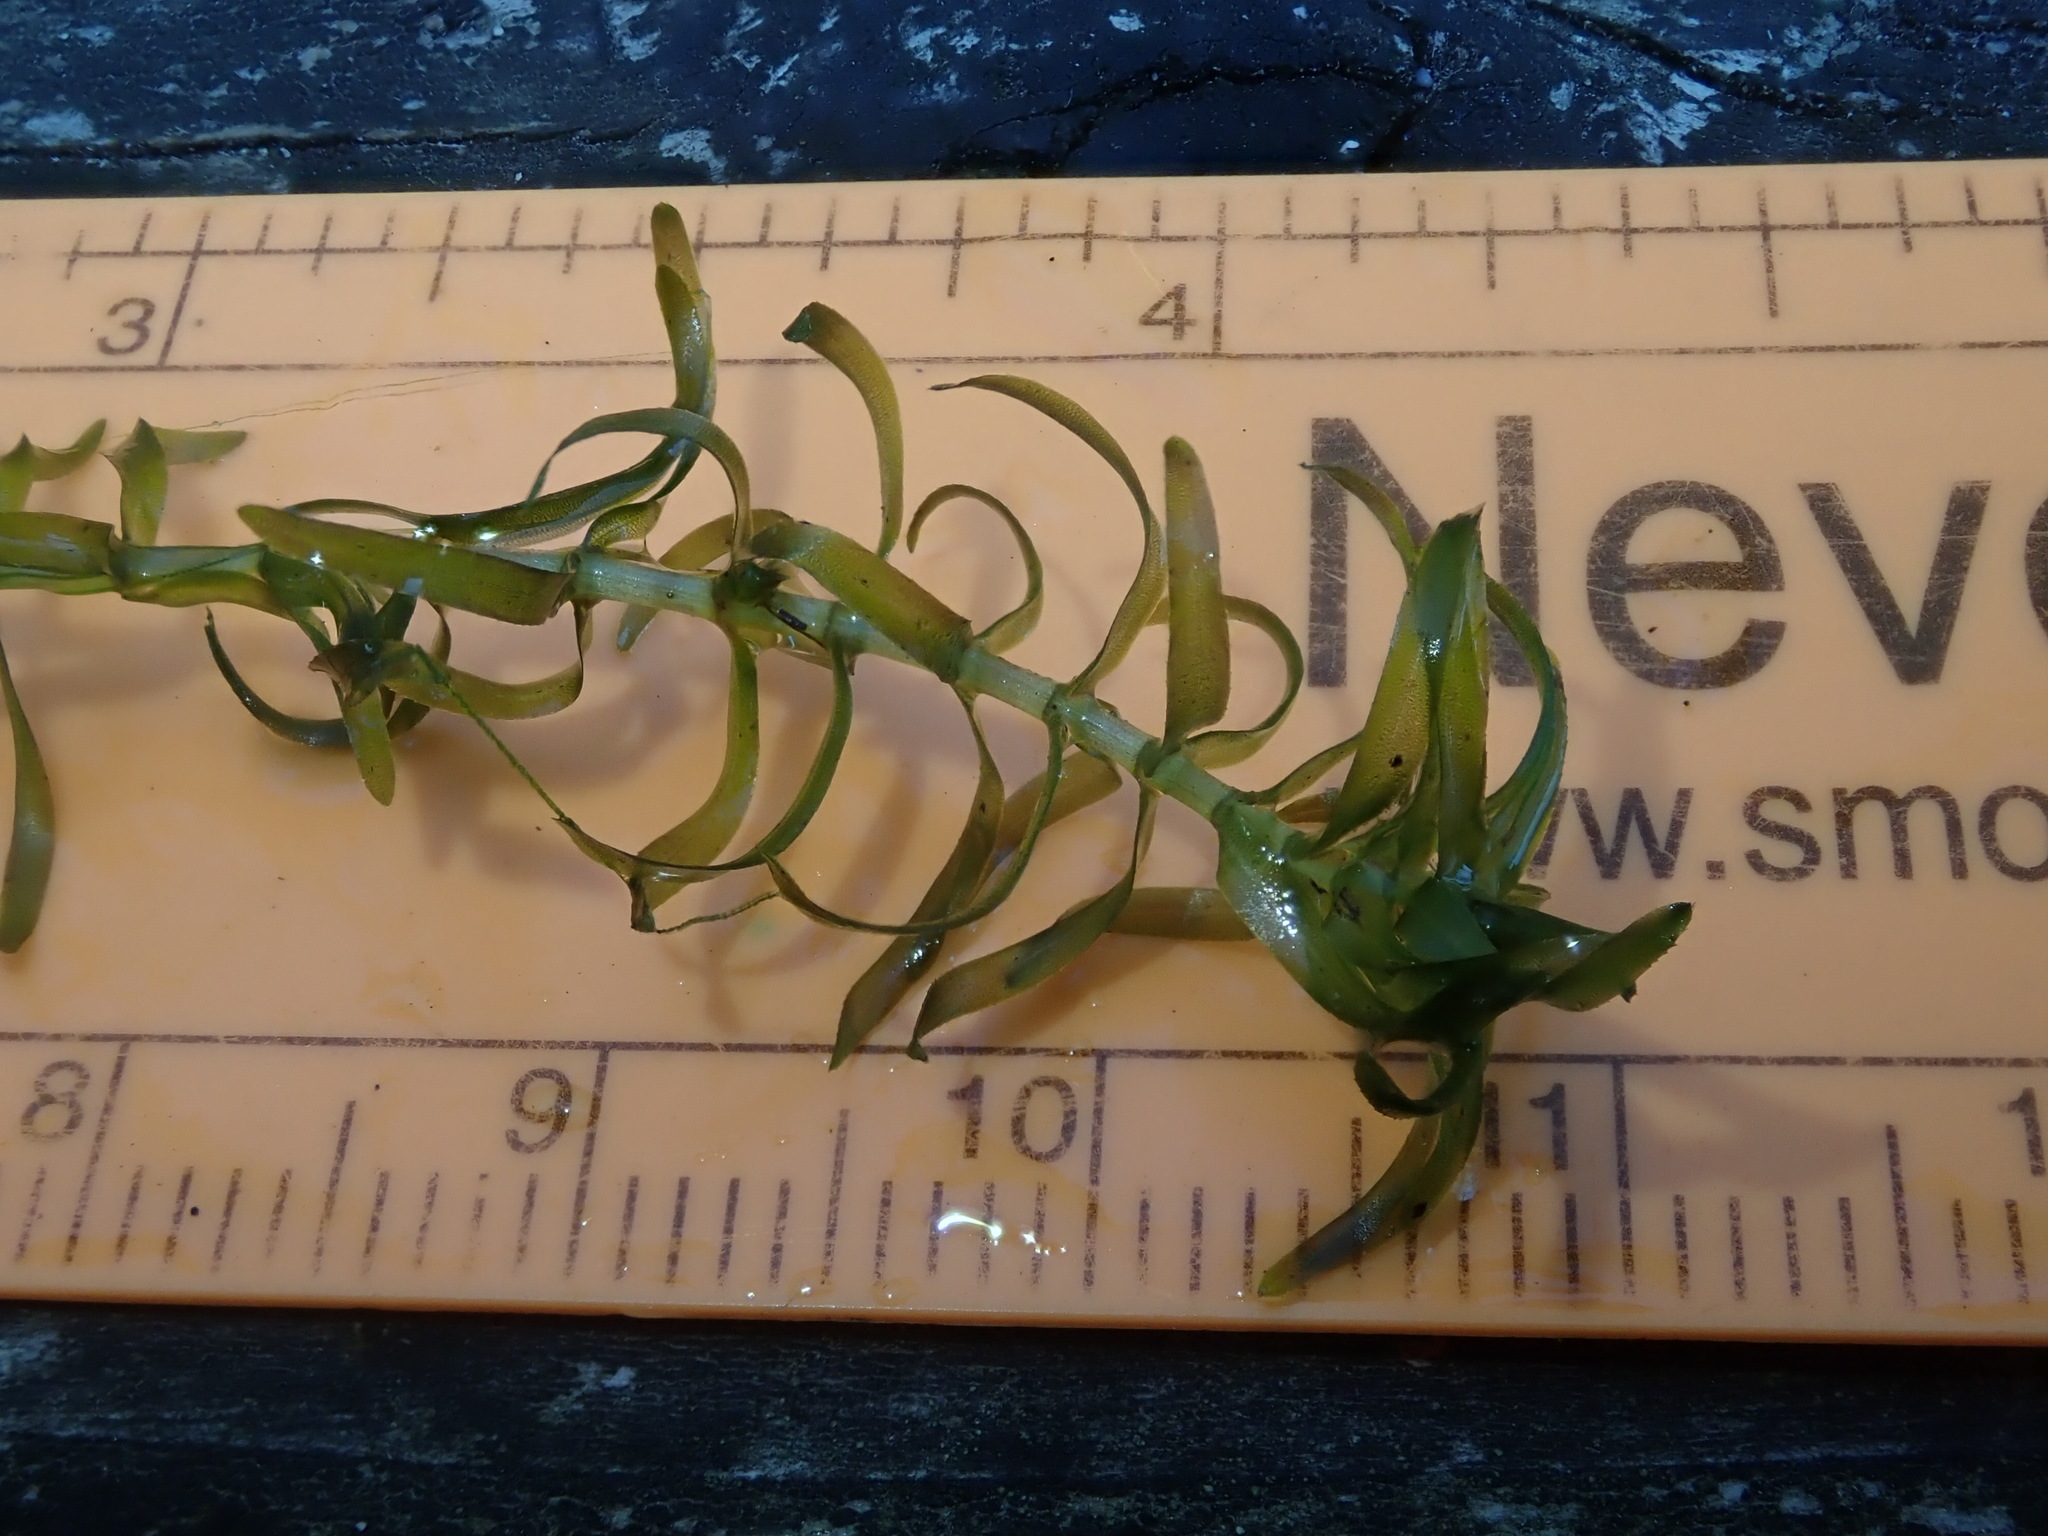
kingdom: Plantae
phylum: Tracheophyta
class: Liliopsida
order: Alismatales
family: Hydrocharitaceae
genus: Elodea
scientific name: Elodea canadensis
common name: Canadian waterweed
